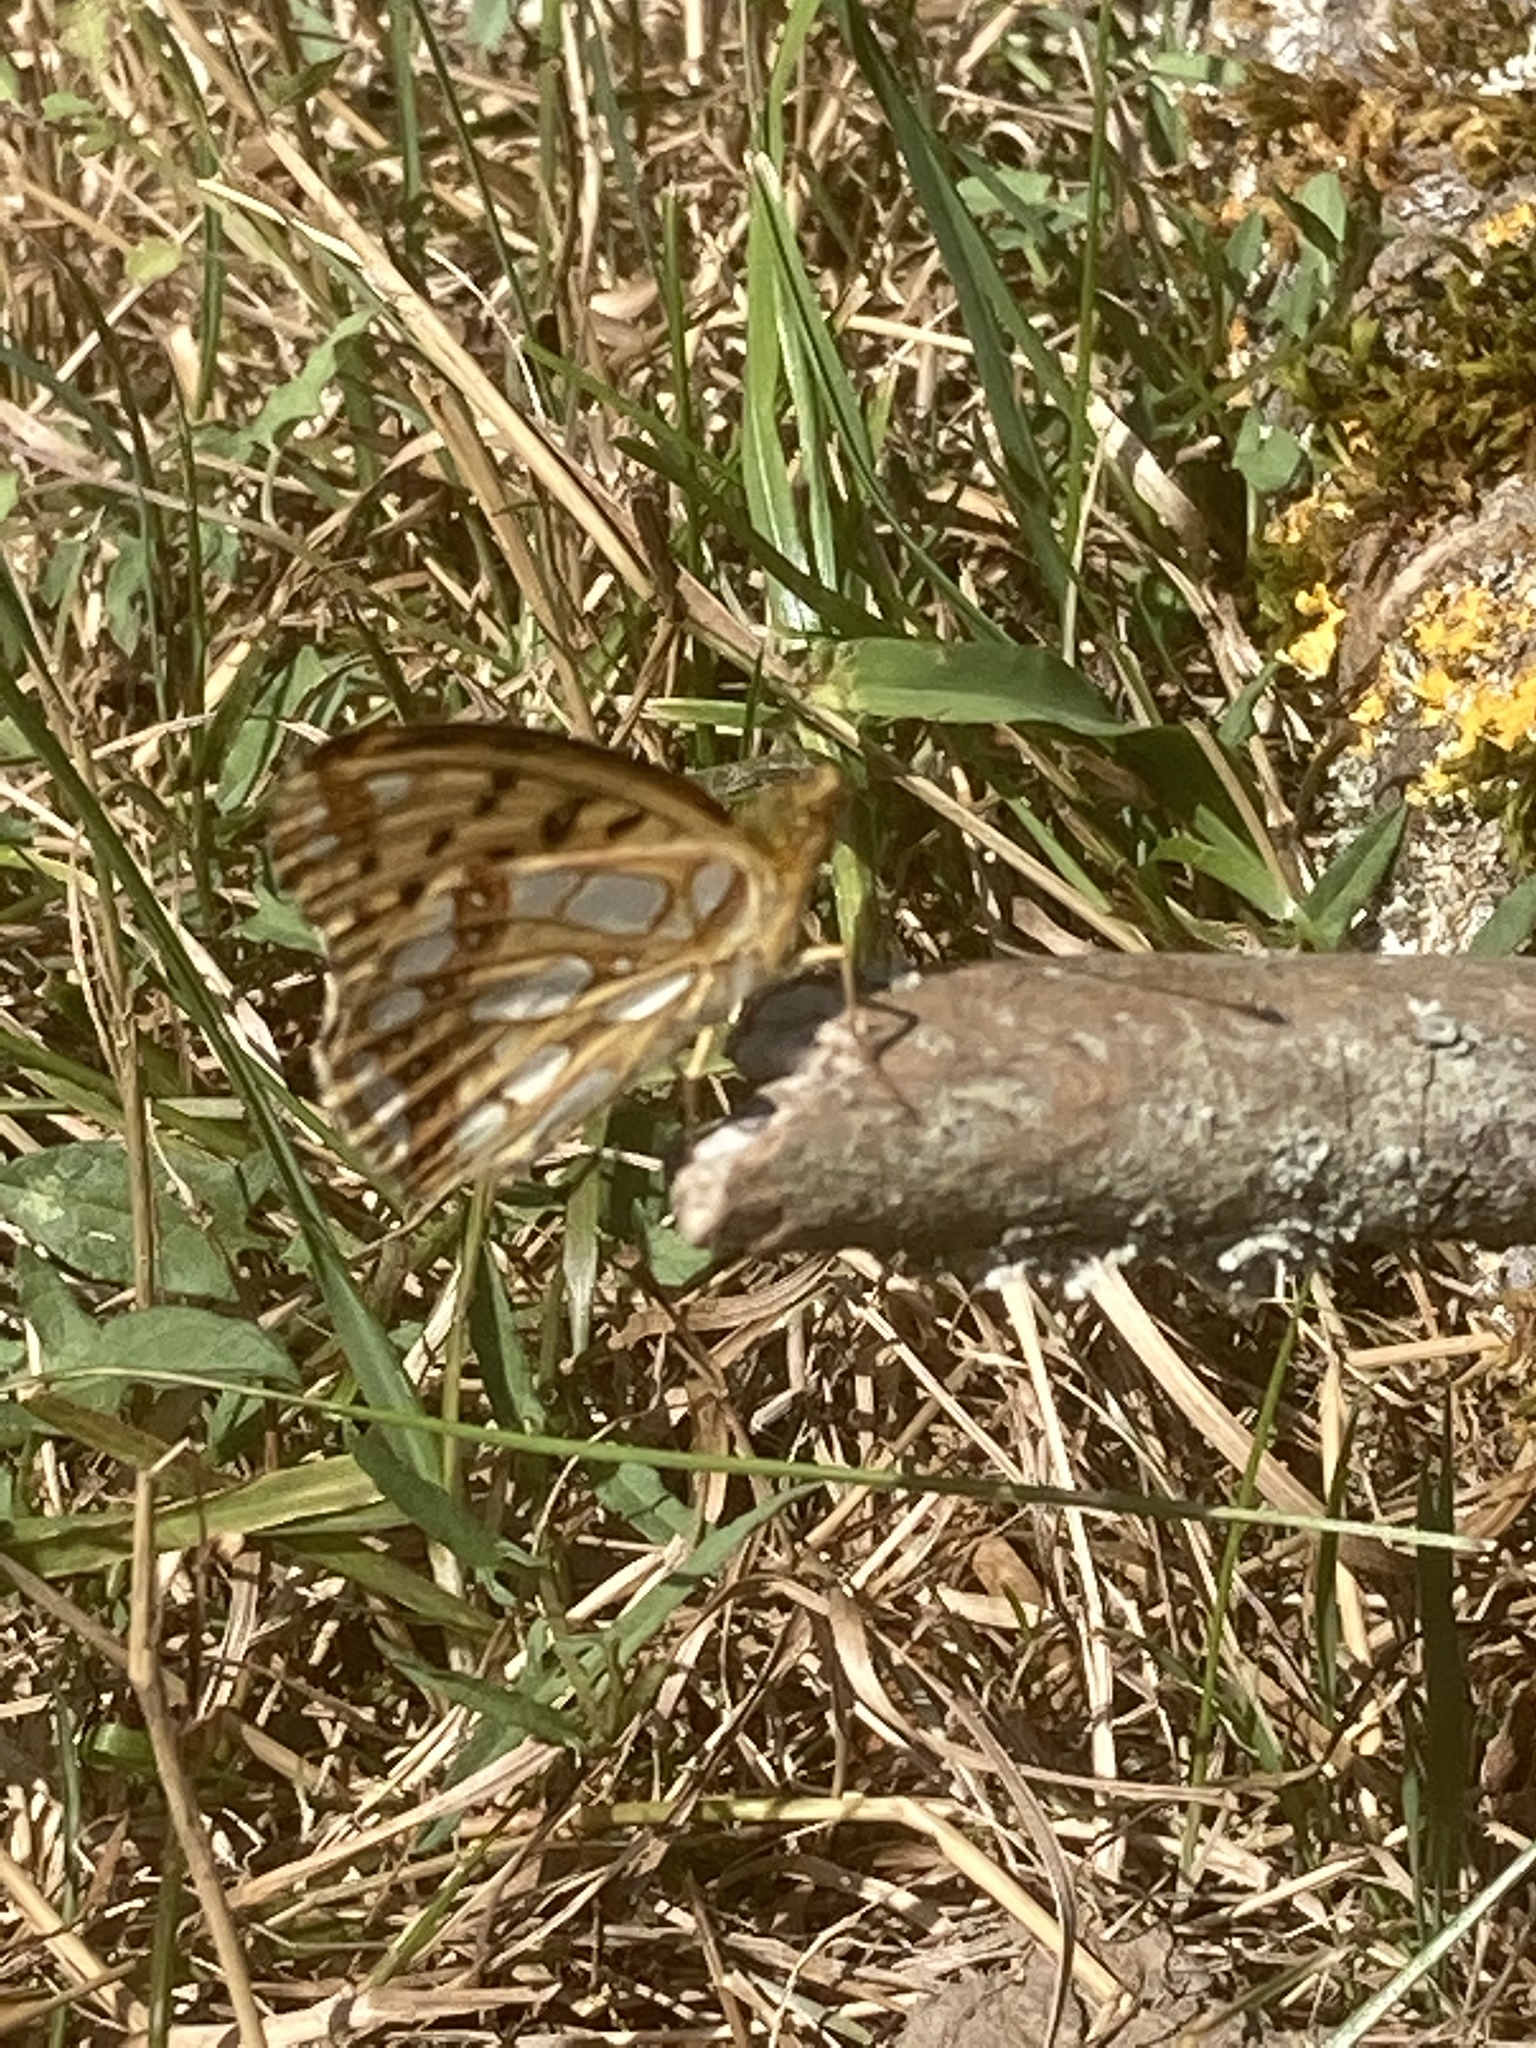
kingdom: Animalia
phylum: Arthropoda
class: Insecta
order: Lepidoptera
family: Nymphalidae
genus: Issoria
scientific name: Issoria lathonia
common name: Queen of spain fritillary
